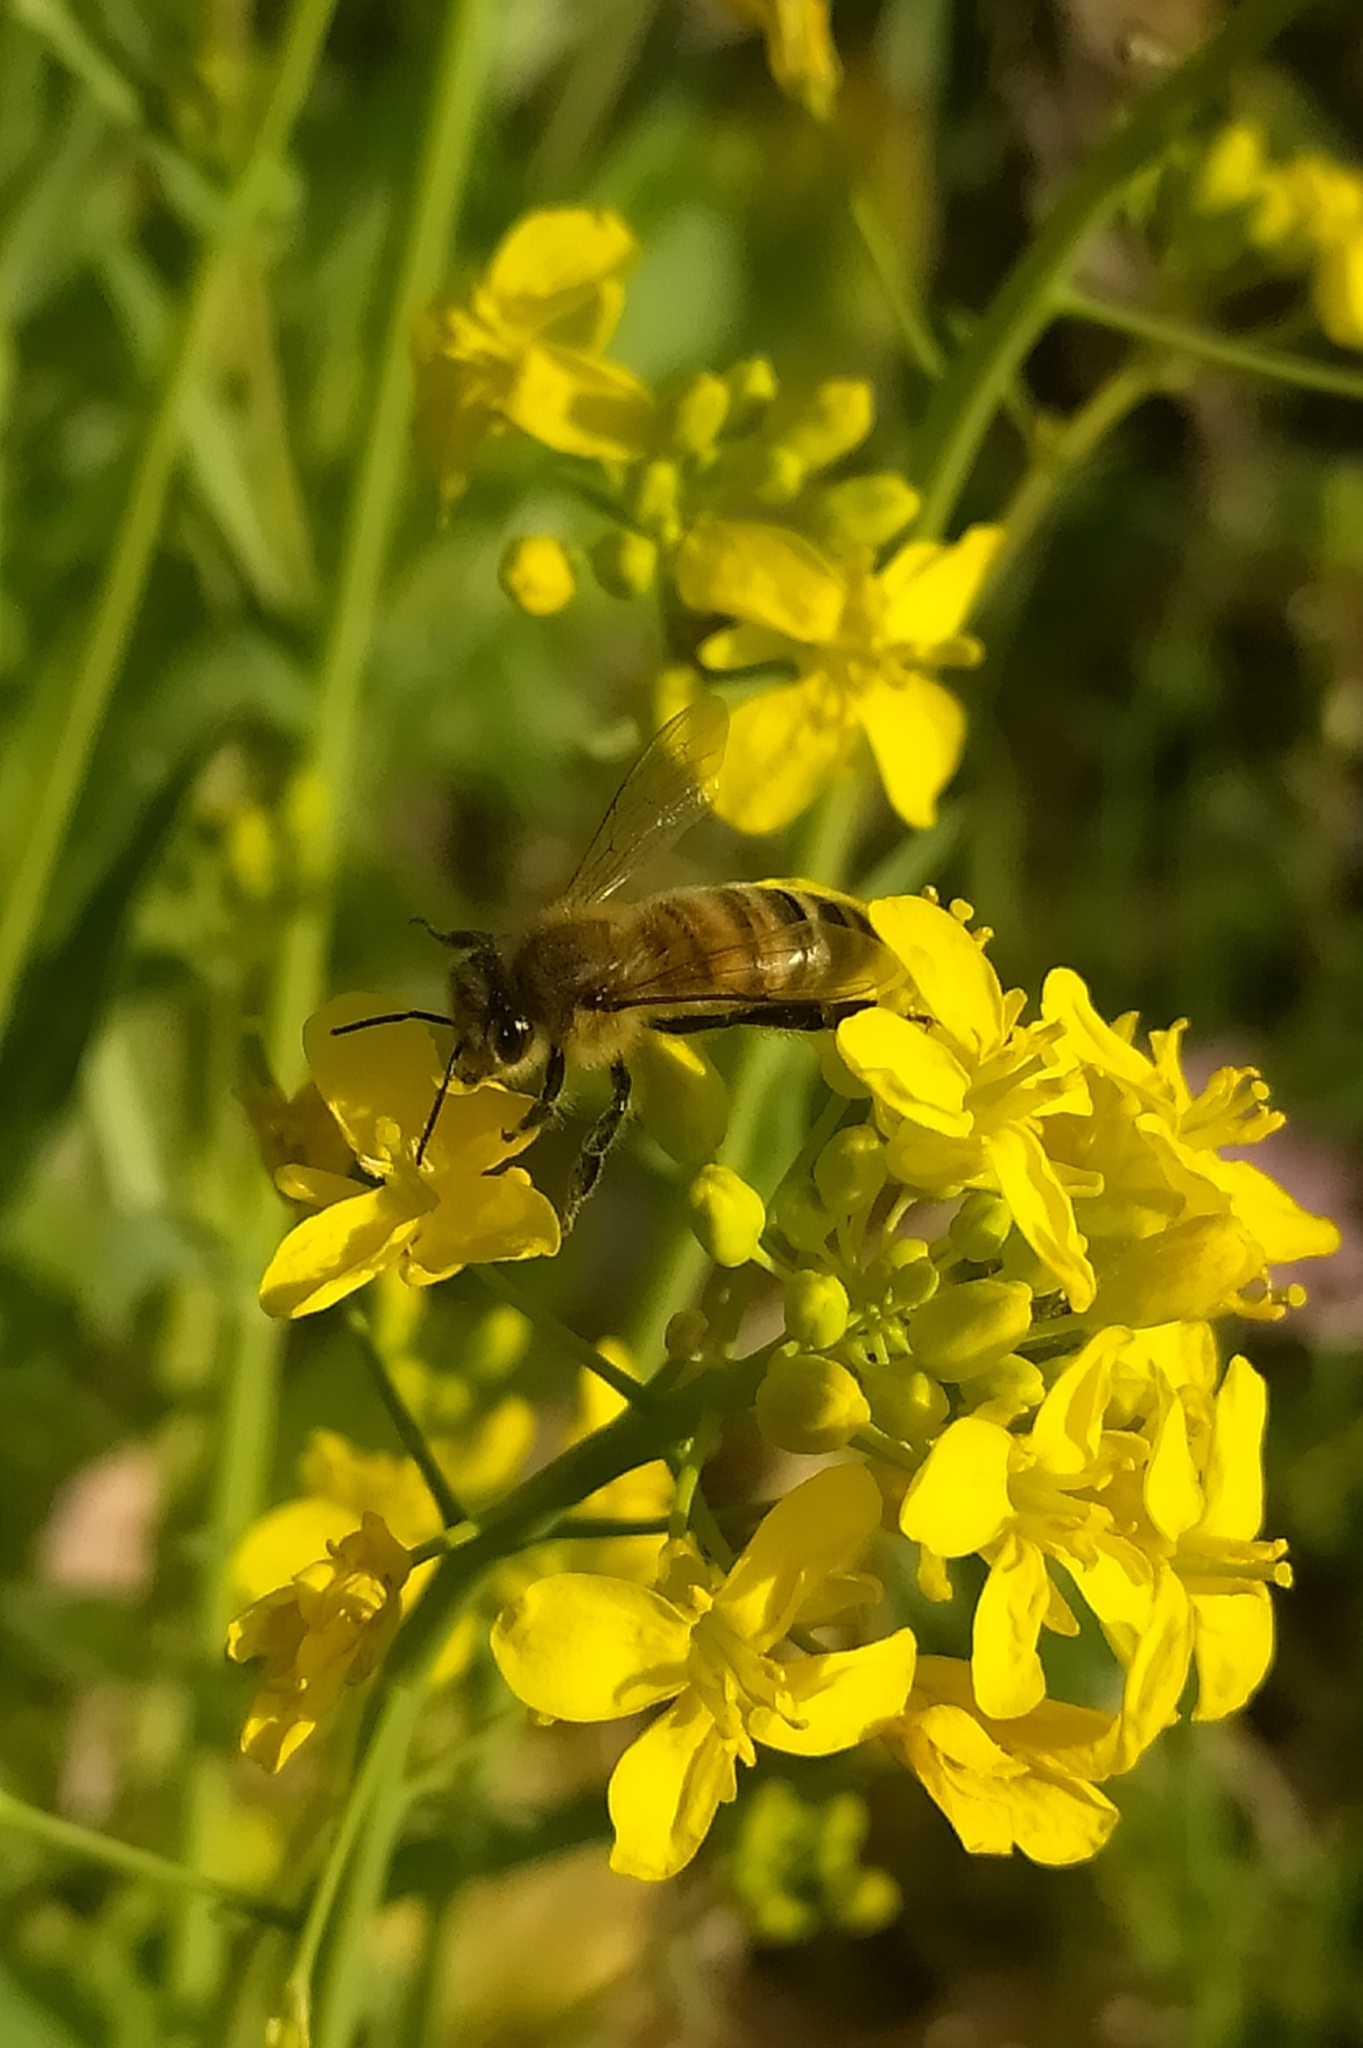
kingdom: Animalia
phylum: Arthropoda
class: Insecta
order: Hymenoptera
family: Apidae
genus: Apis
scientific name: Apis mellifera
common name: Honey bee
